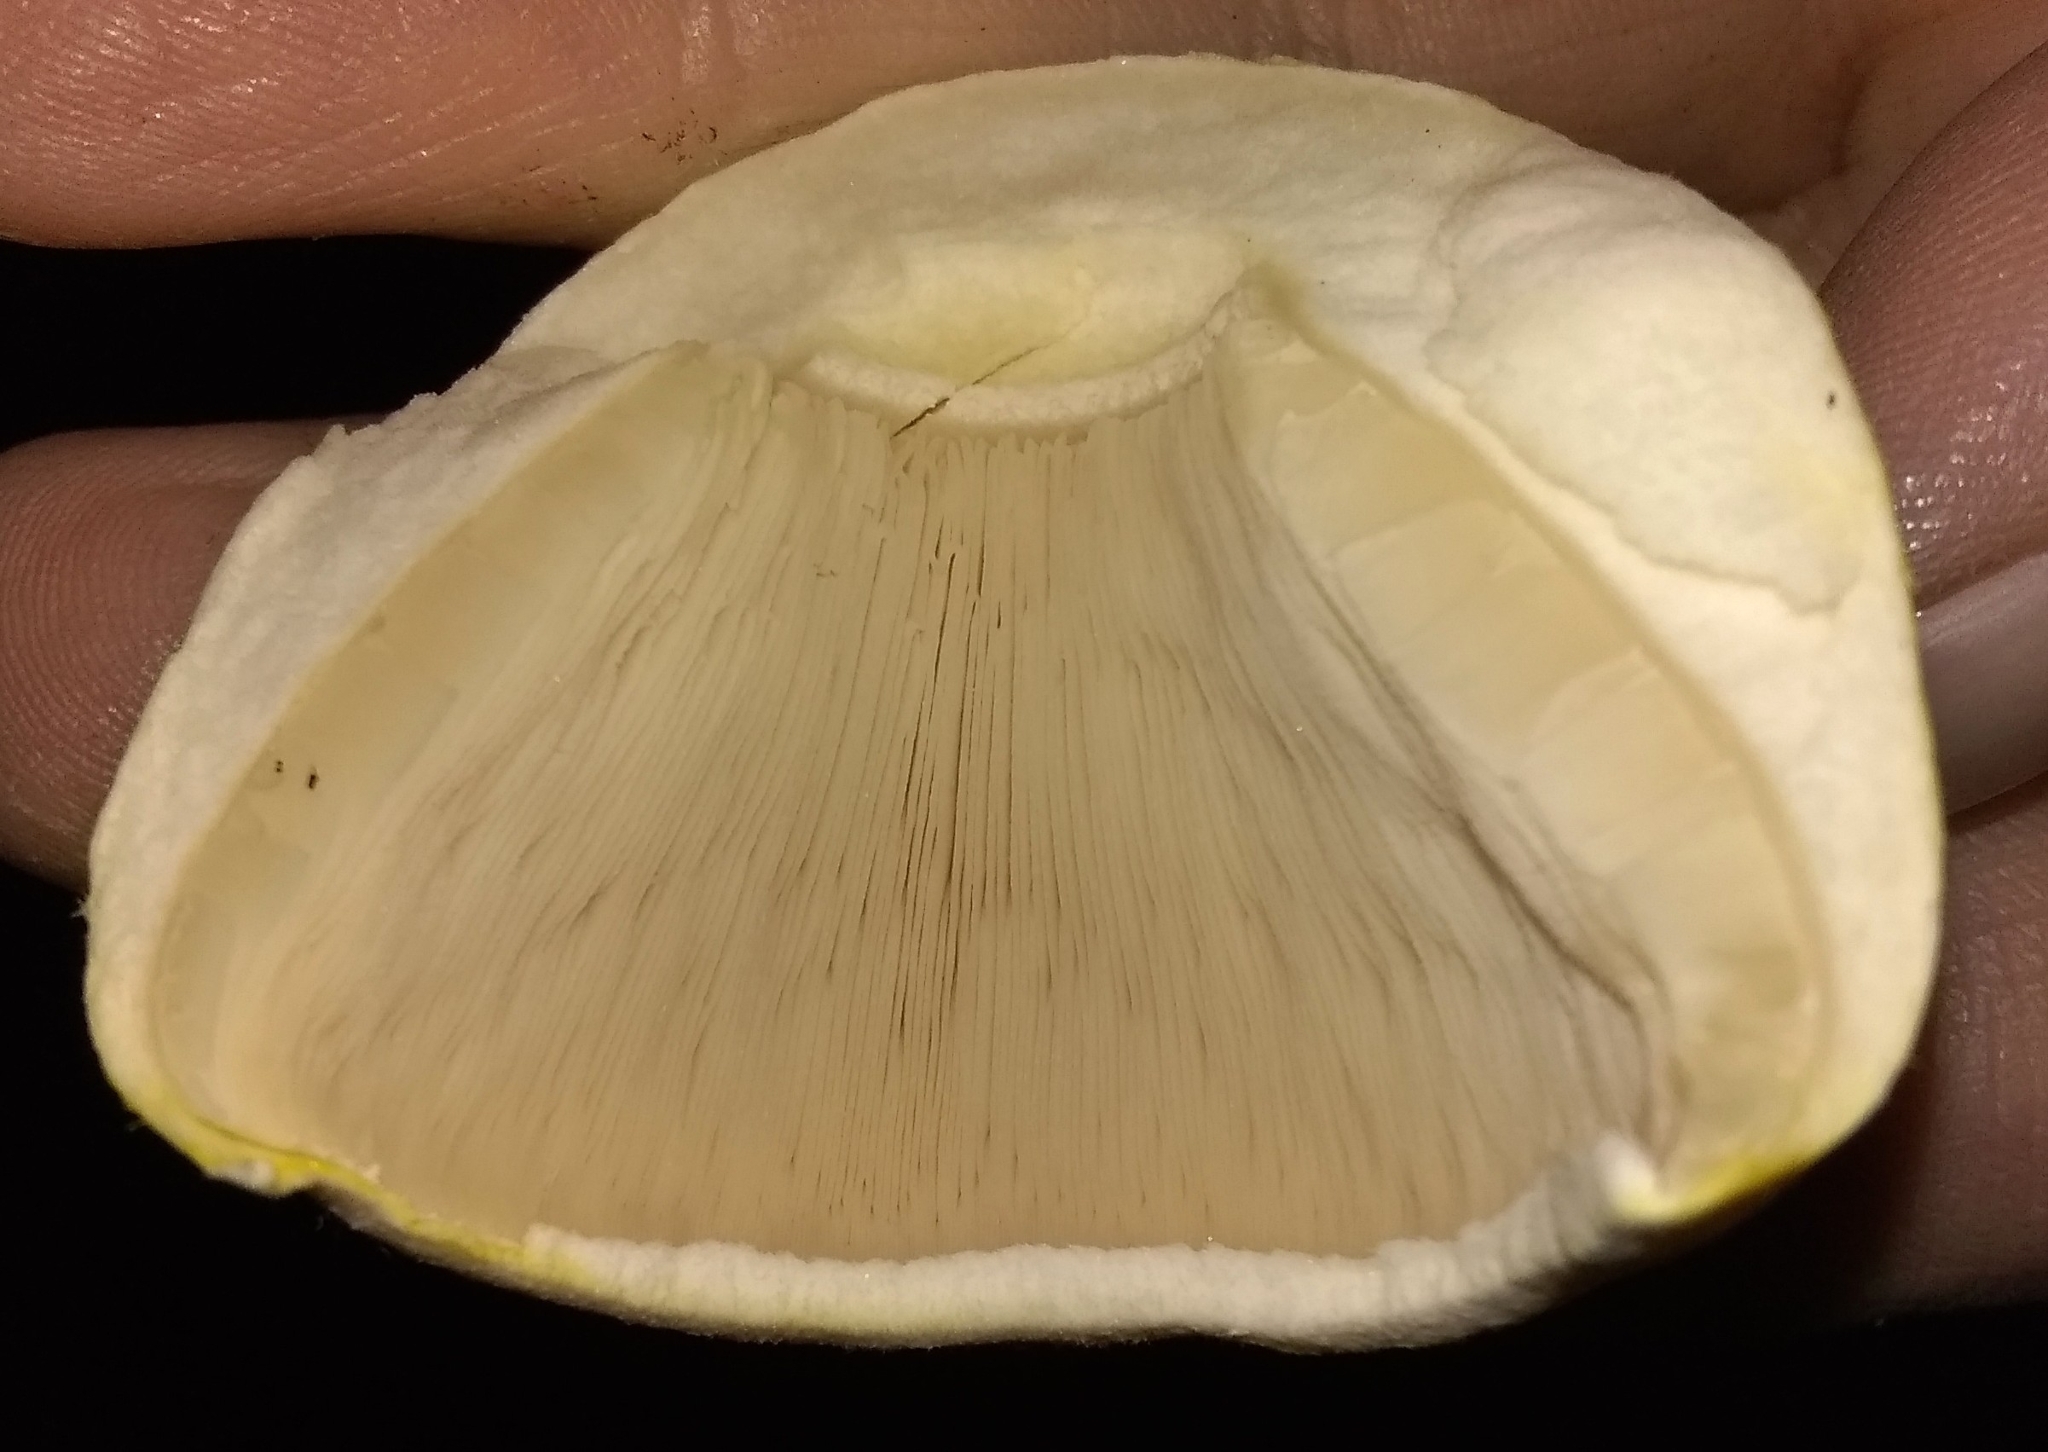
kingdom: Fungi
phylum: Basidiomycota
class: Agaricomycetes
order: Agaricales
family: Agaricaceae
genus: Agaricus
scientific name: Agaricus xanthodermus
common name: Yellow stainer
